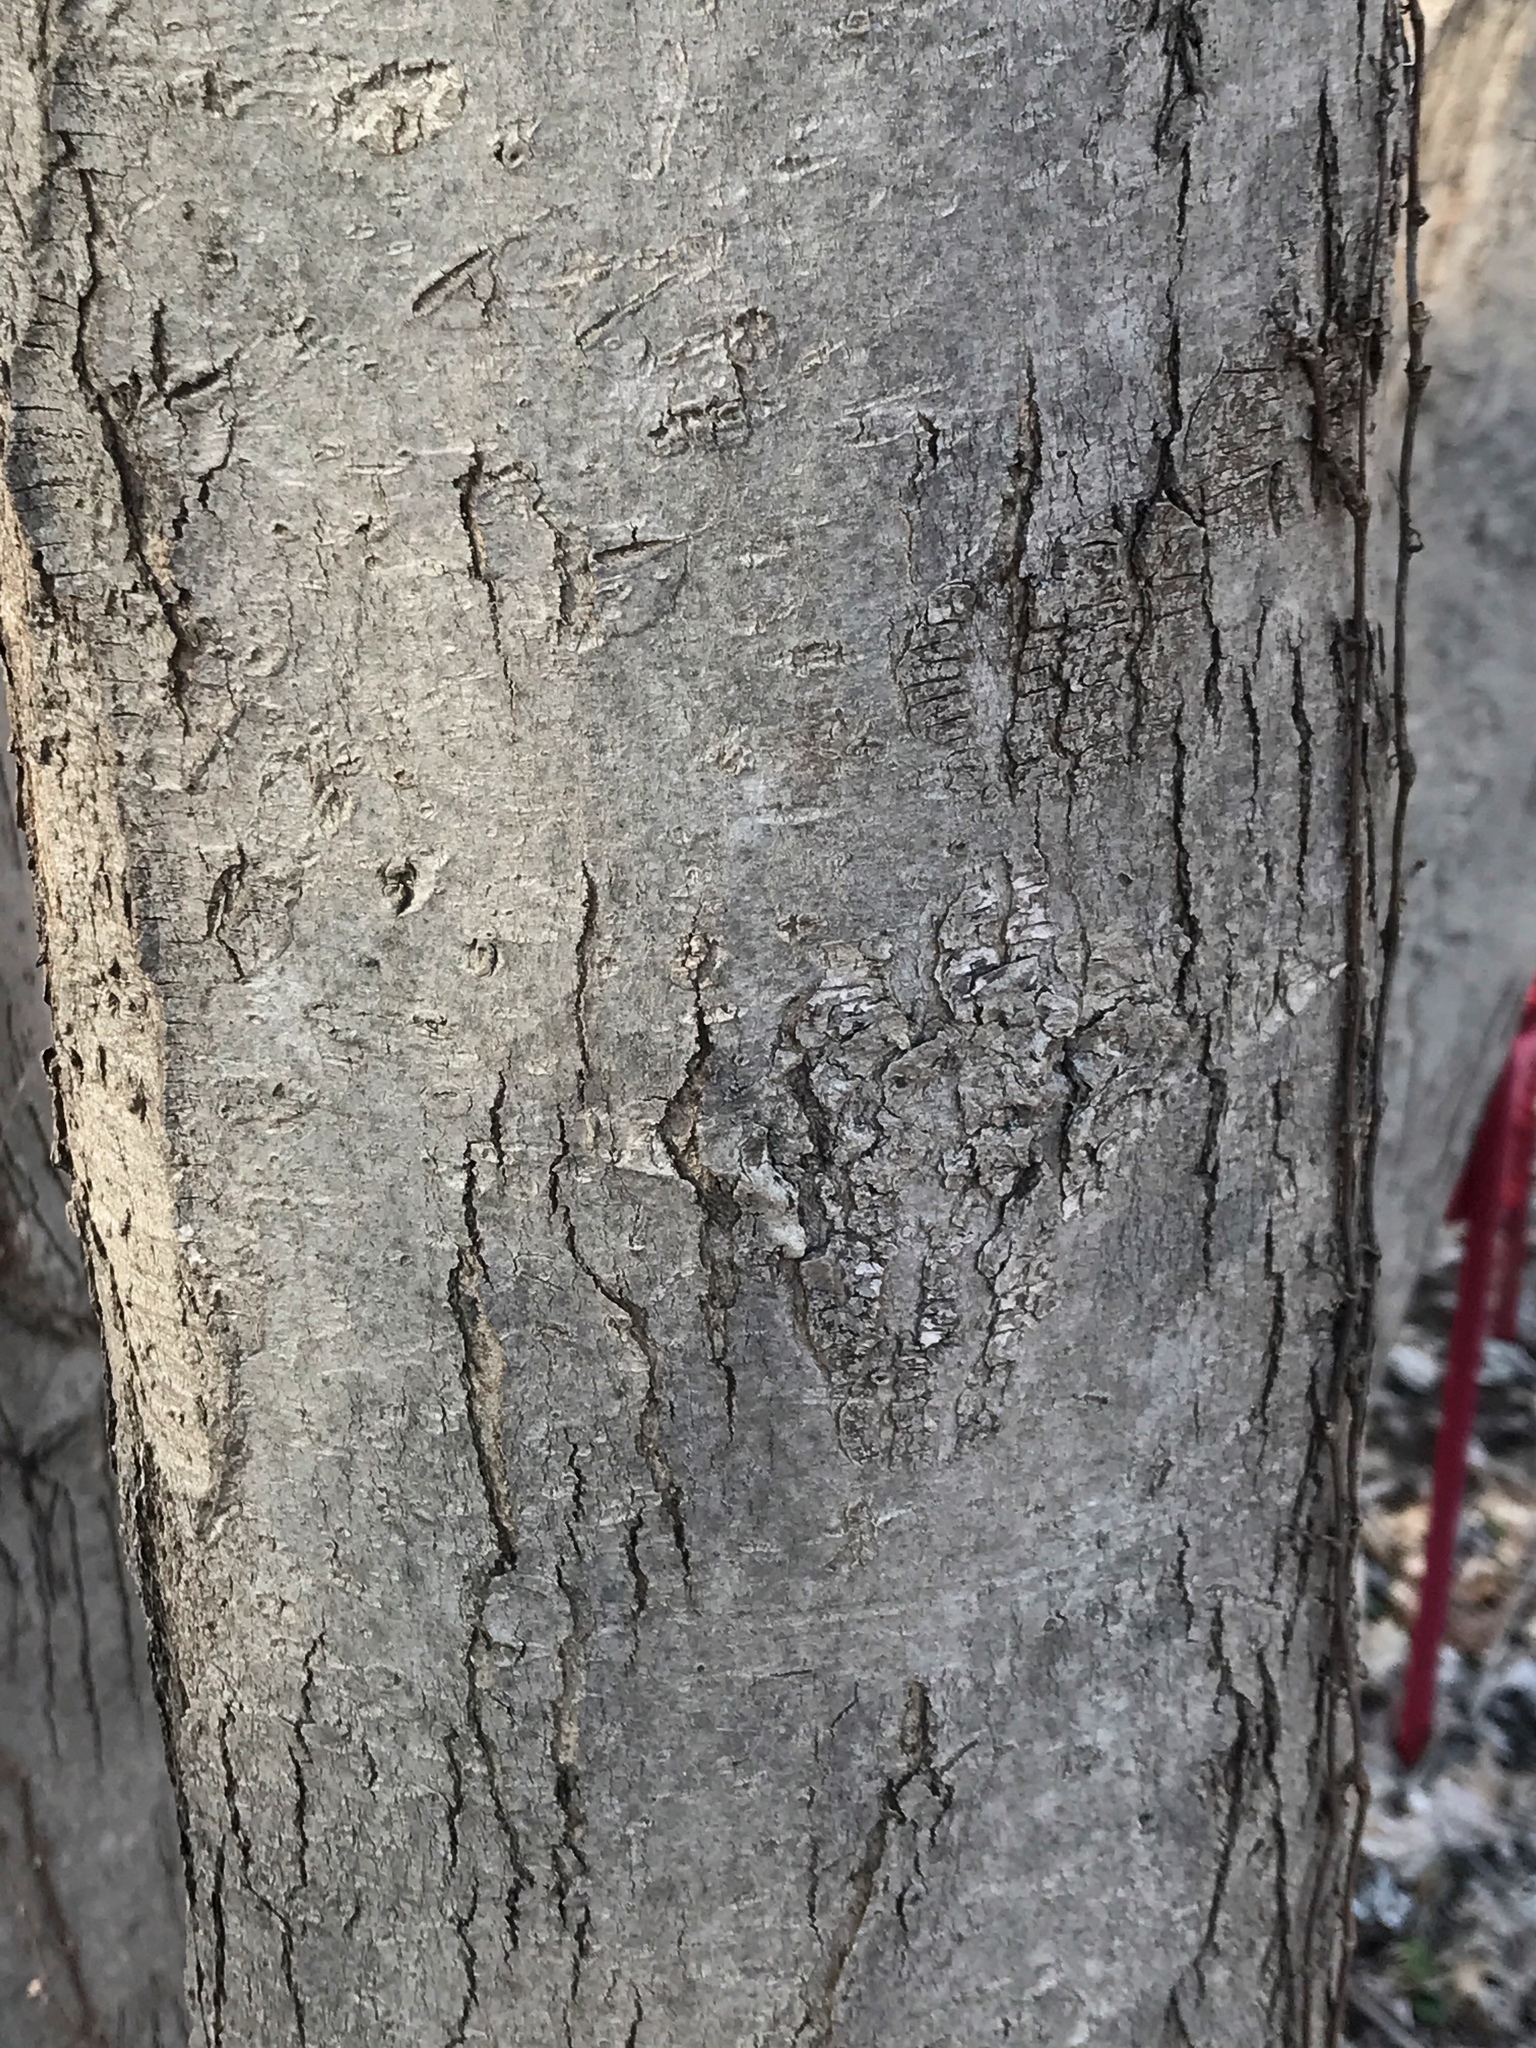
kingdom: Plantae
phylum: Tracheophyta
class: Magnoliopsida
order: Sapindales
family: Sapindaceae
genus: Acer
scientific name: Acer rubrum
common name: Red maple
